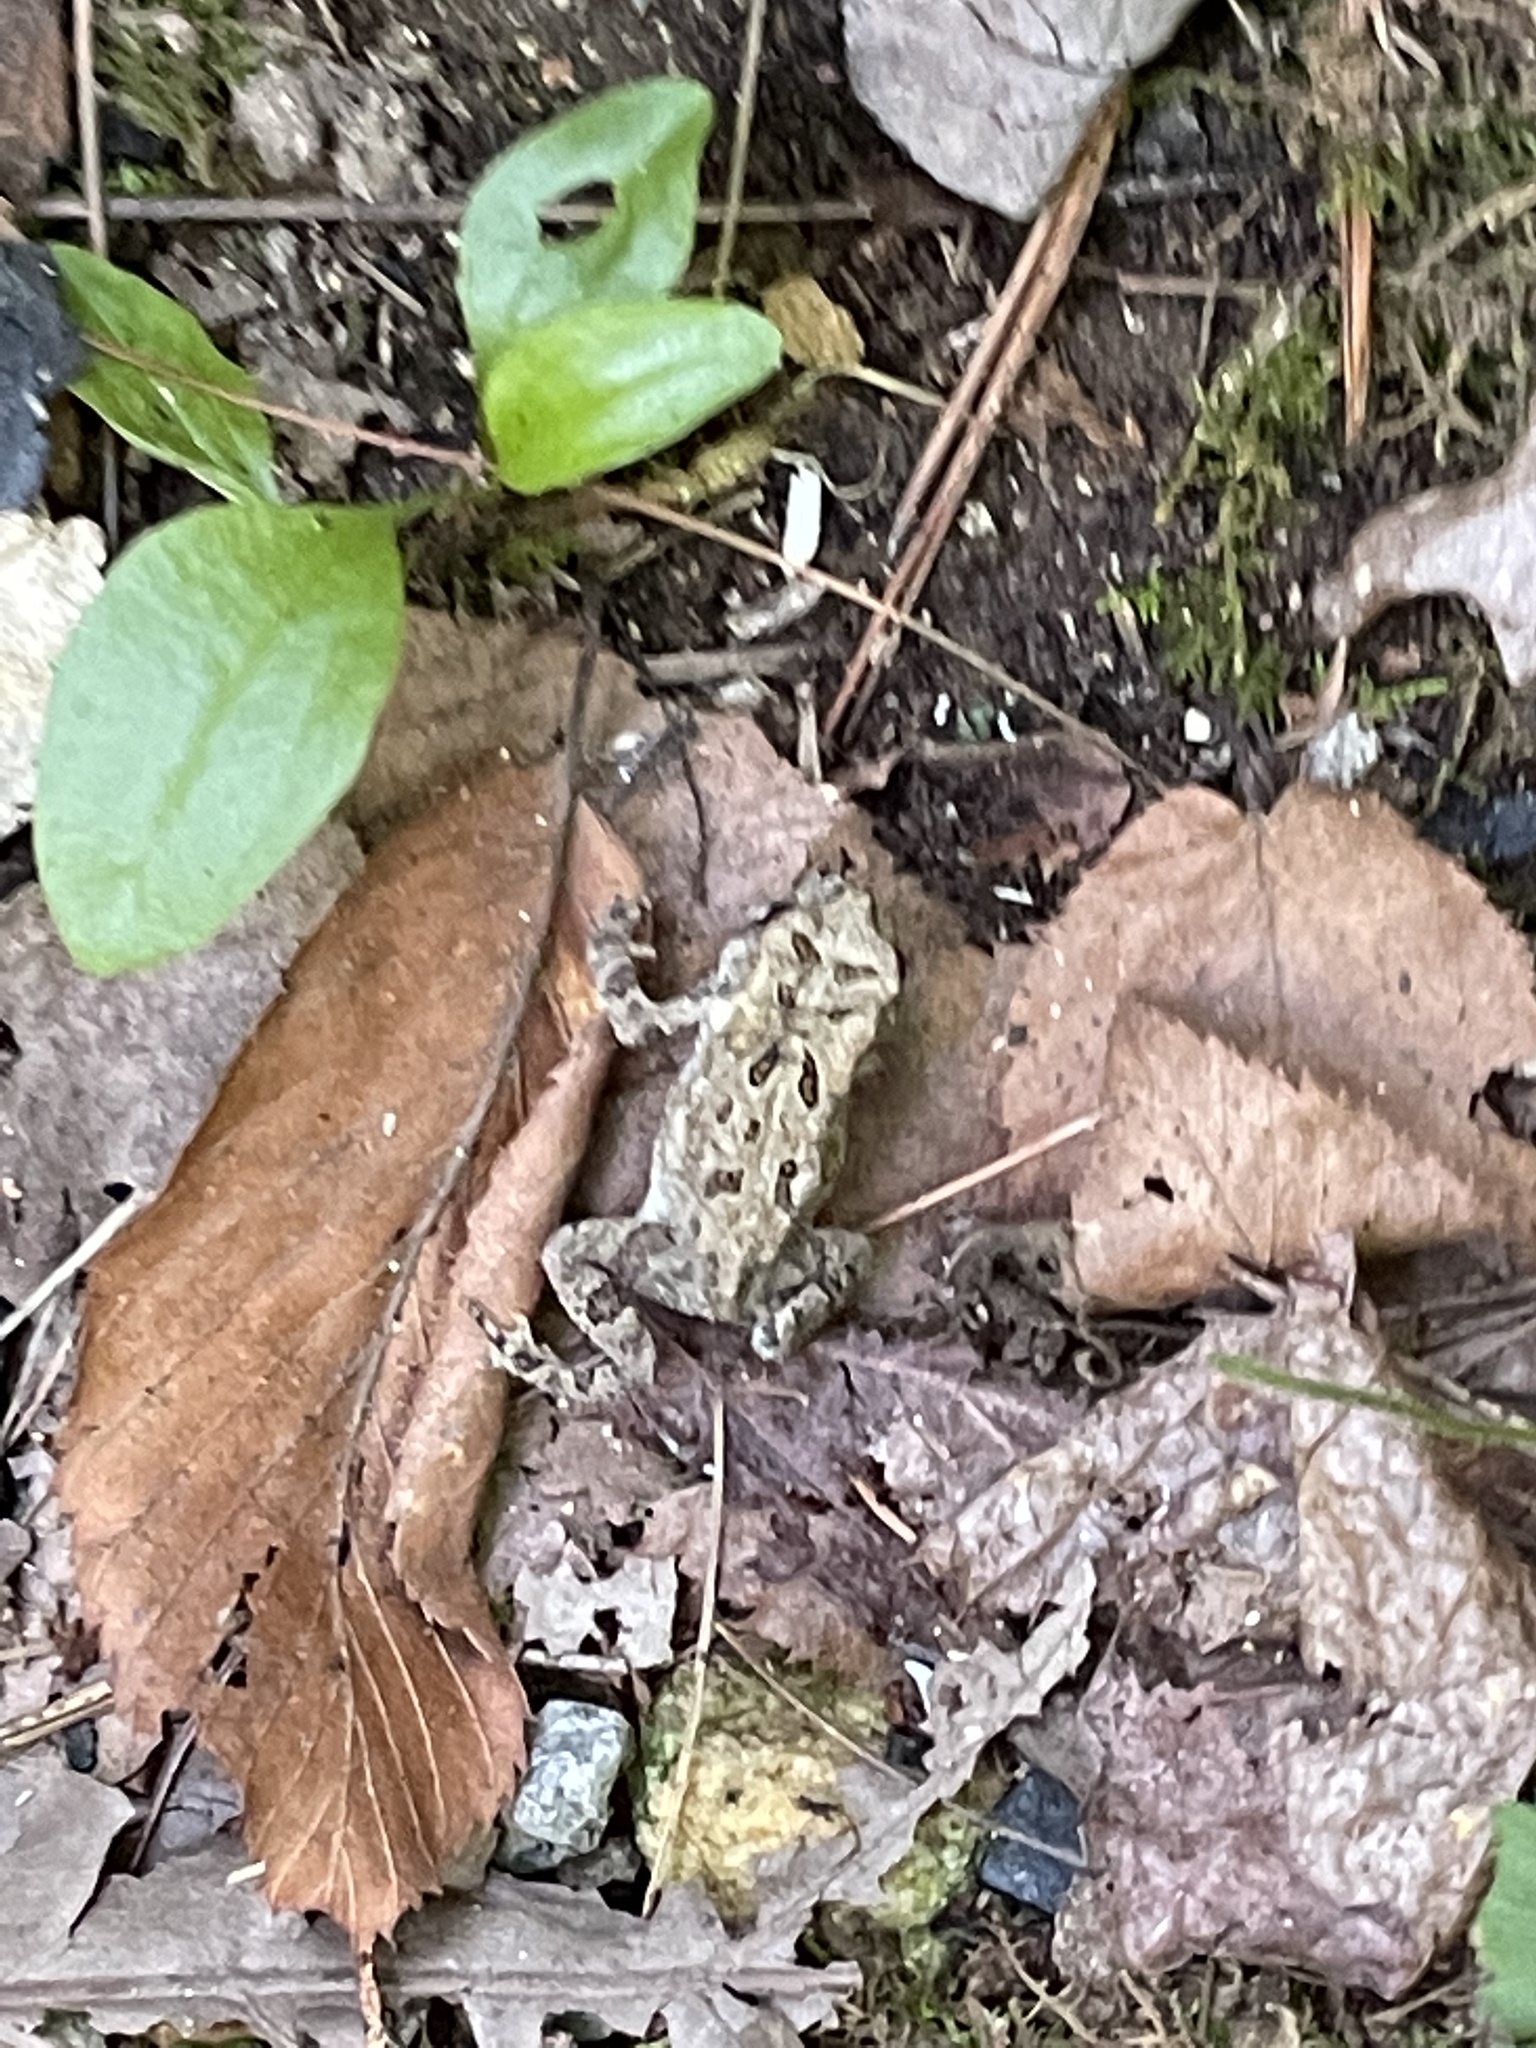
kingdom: Animalia
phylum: Chordata
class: Amphibia
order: Anura
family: Bufonidae
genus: Anaxyrus
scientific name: Anaxyrus americanus
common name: American toad
